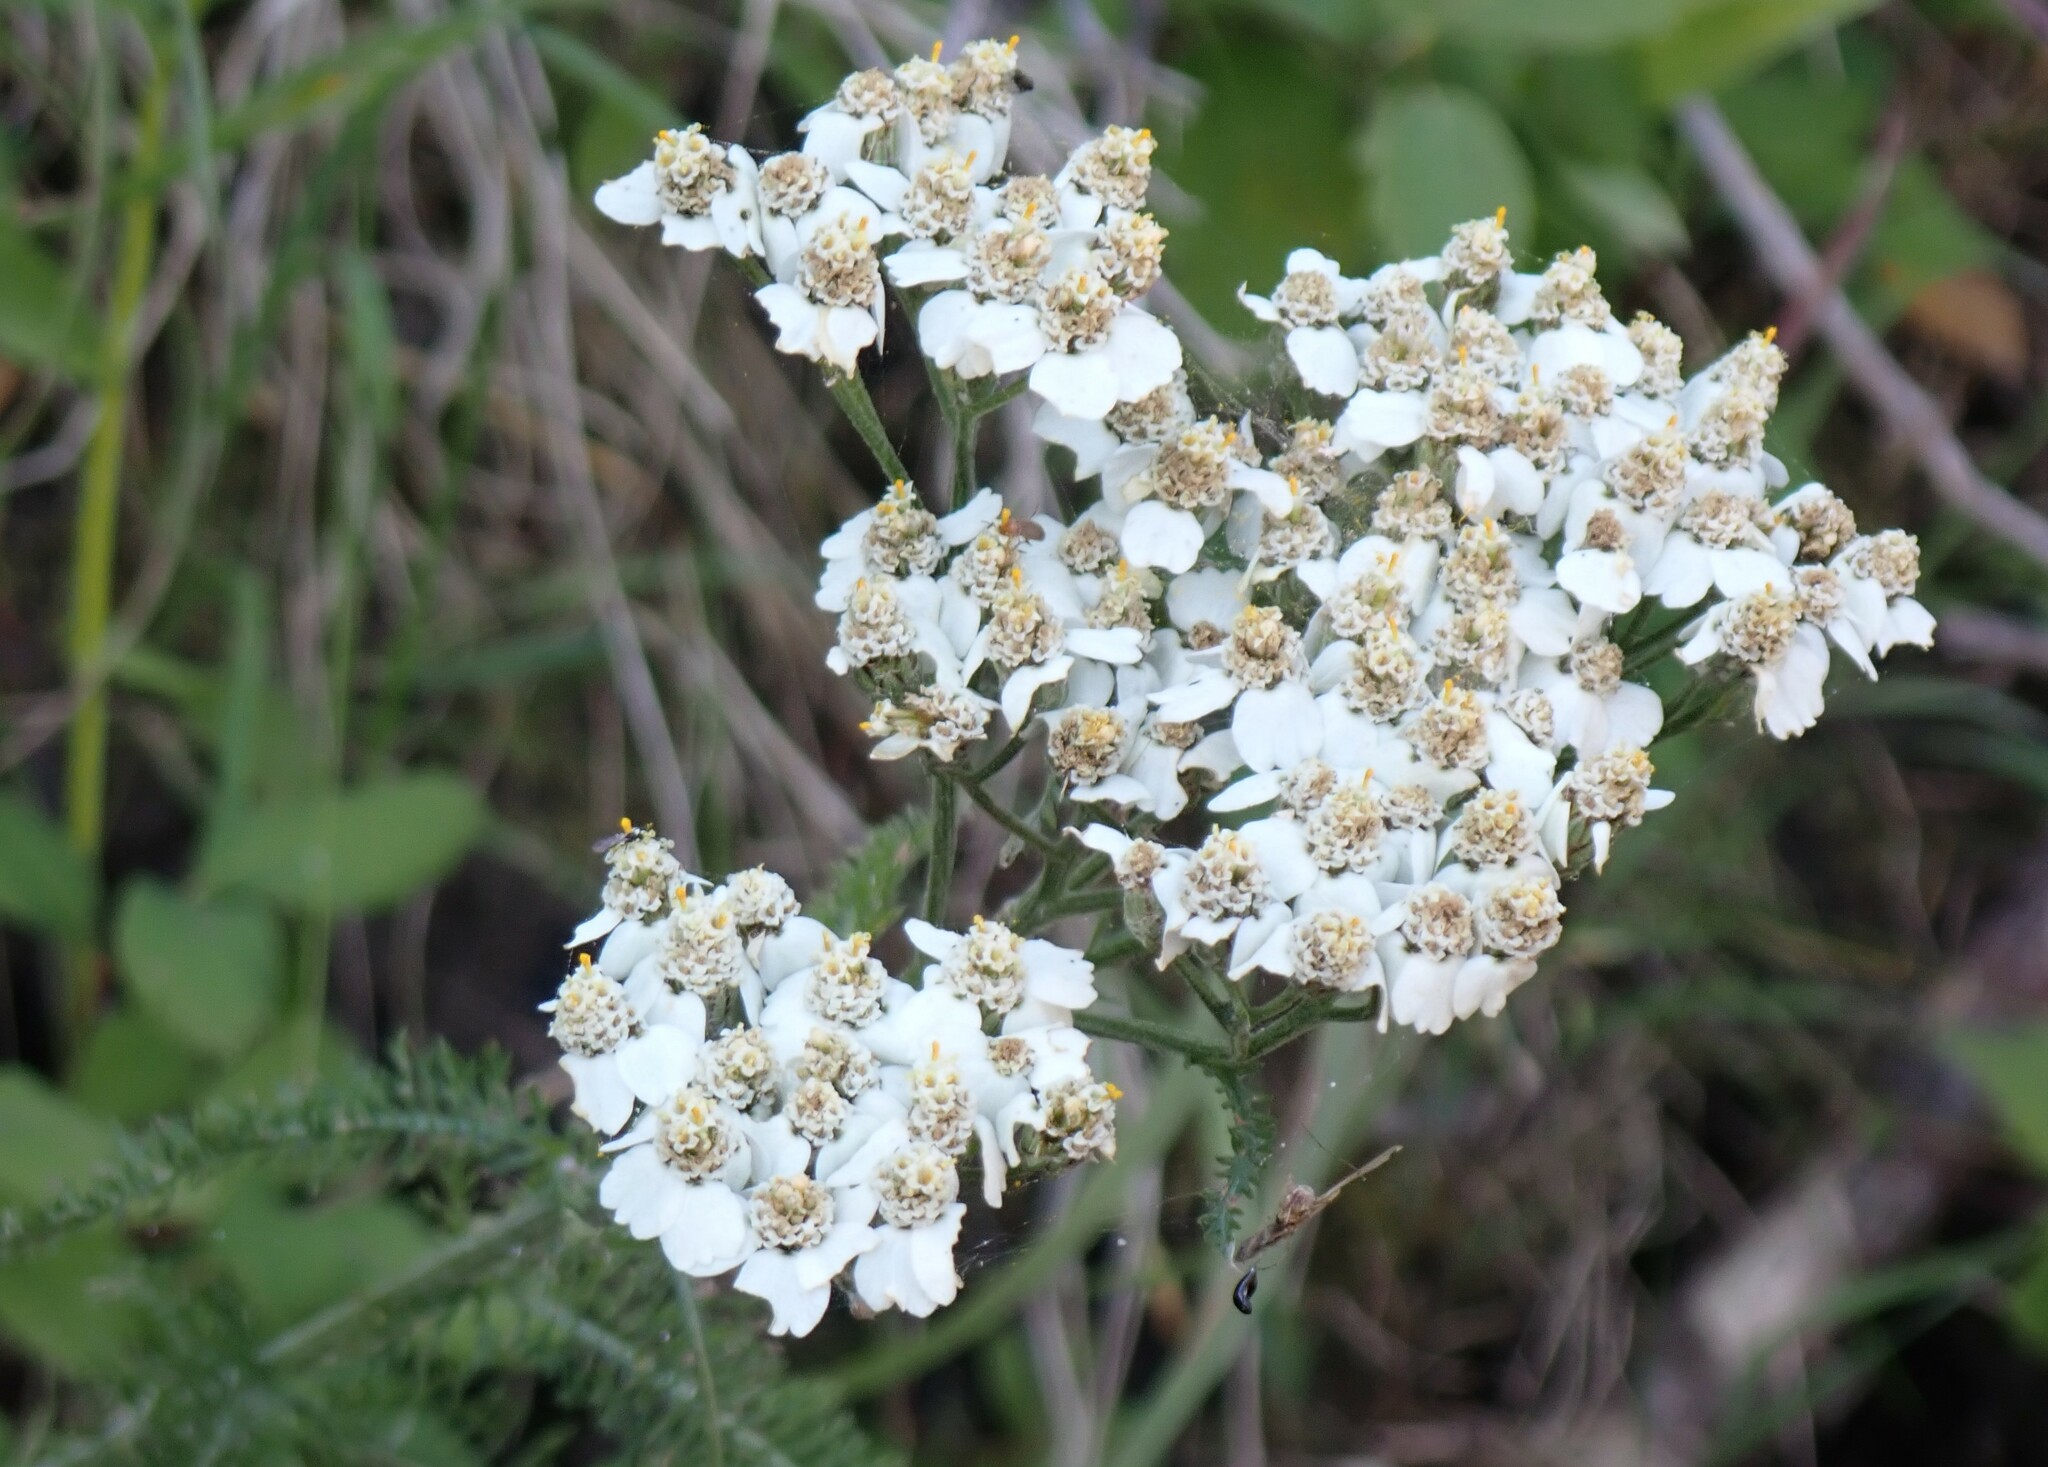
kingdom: Plantae
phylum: Tracheophyta
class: Magnoliopsida
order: Asterales
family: Asteraceae
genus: Achillea
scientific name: Achillea millefolium
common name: Yarrow
